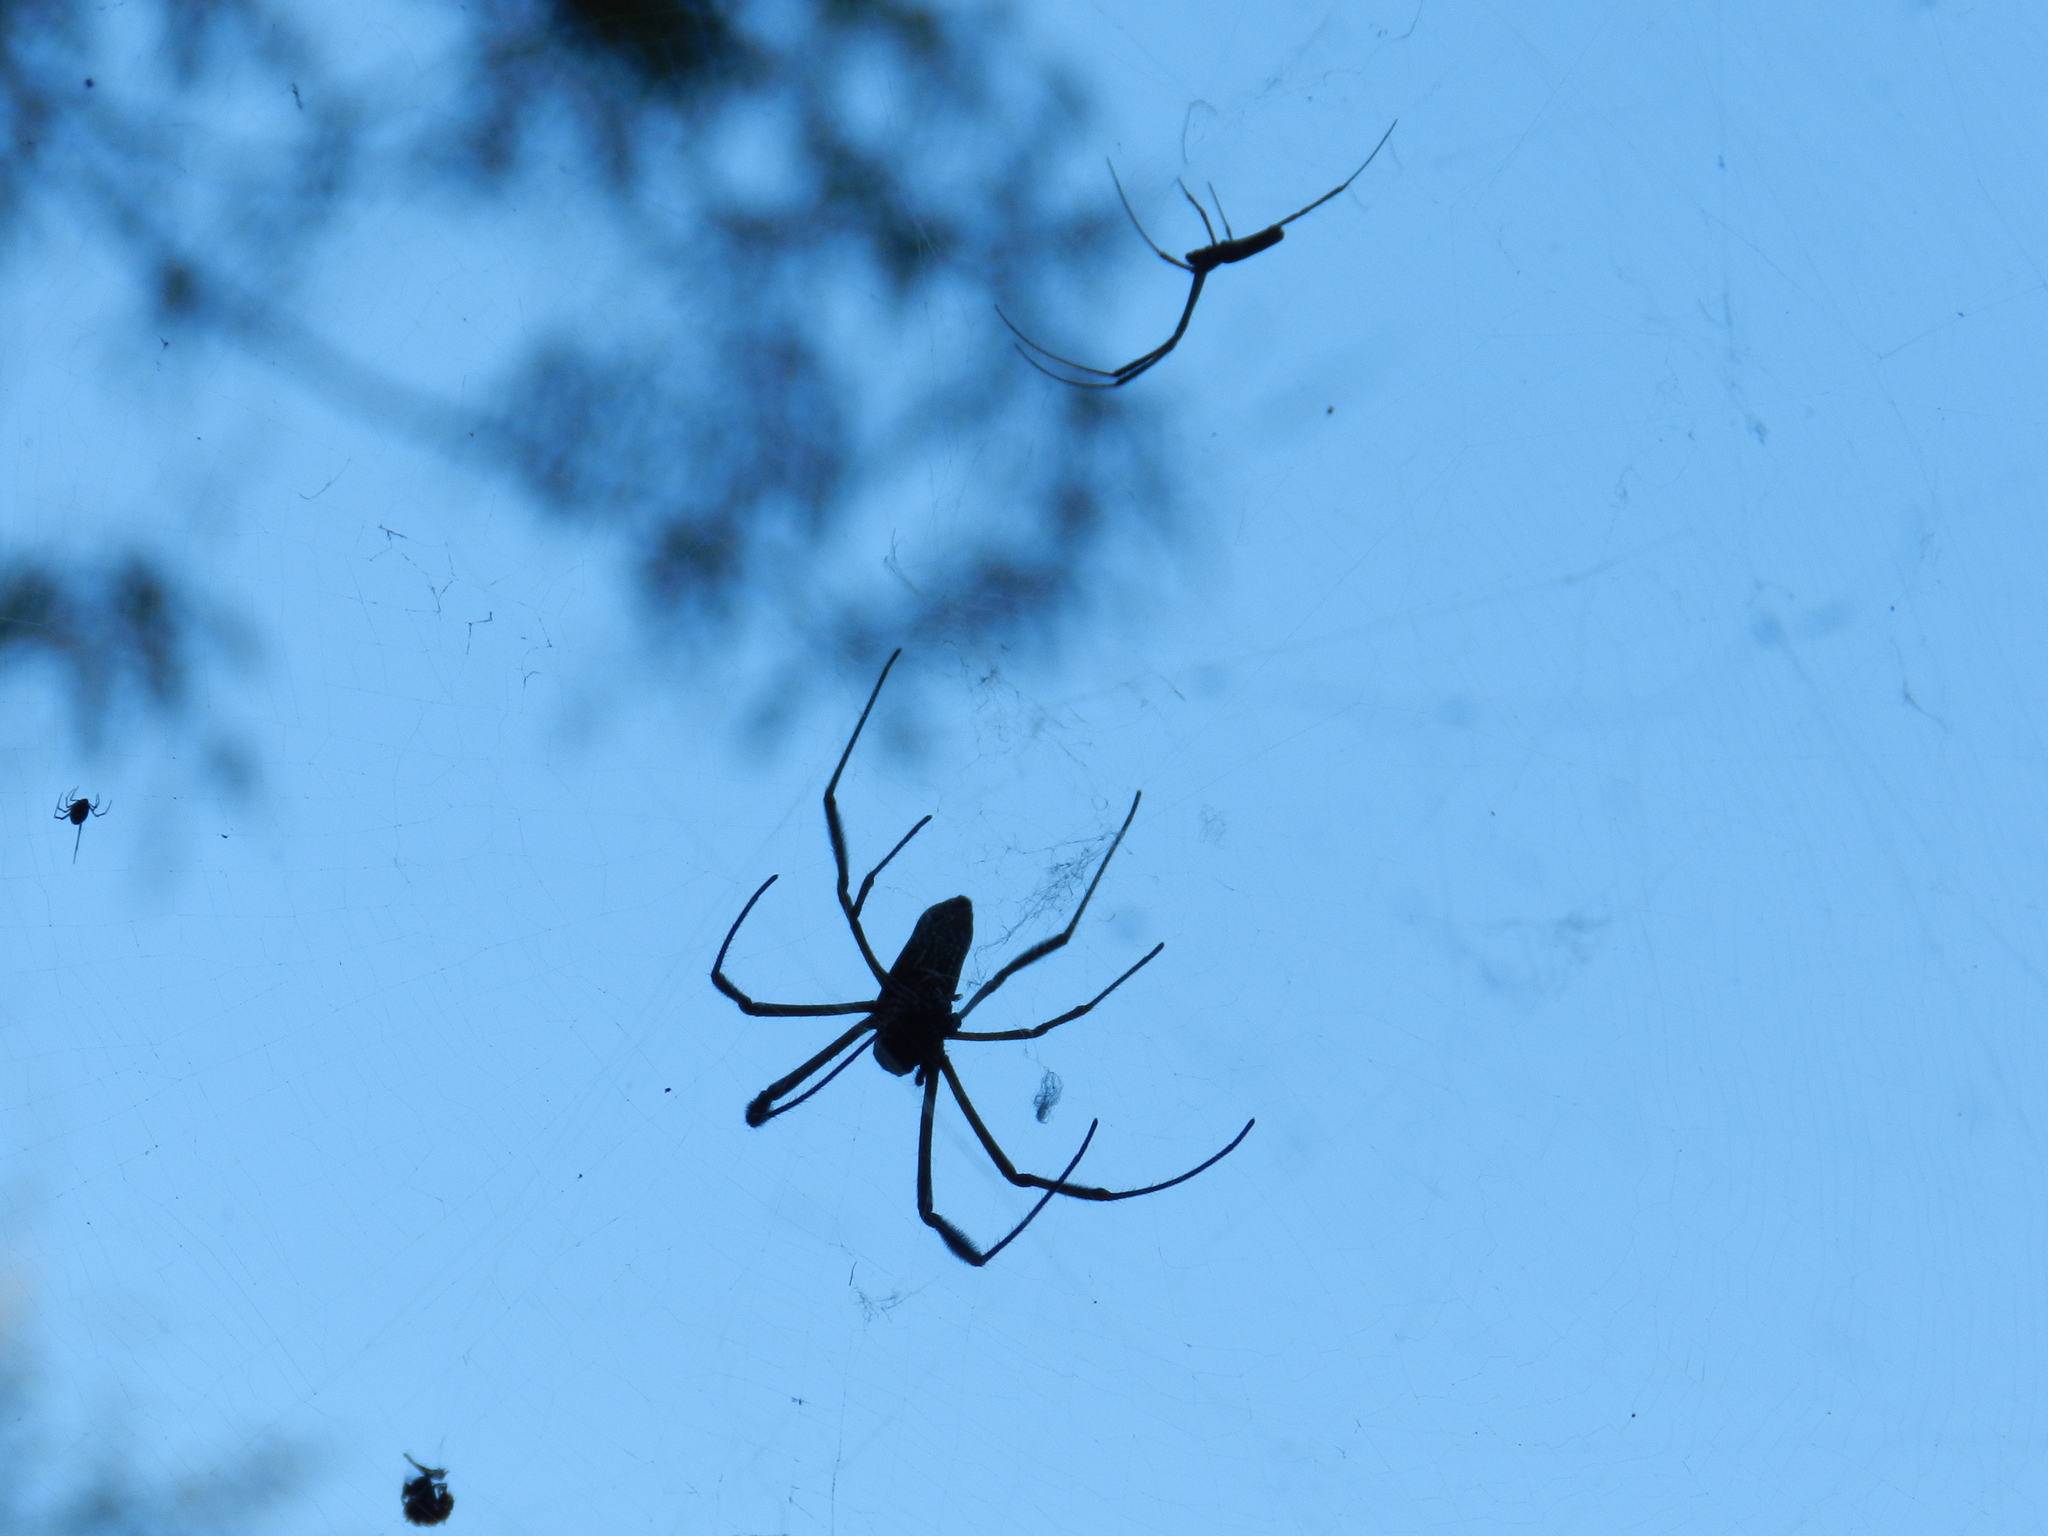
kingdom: Animalia
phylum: Arthropoda
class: Arachnida
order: Araneae
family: Araneidae
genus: Trichonephila
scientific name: Trichonephila clavipes
